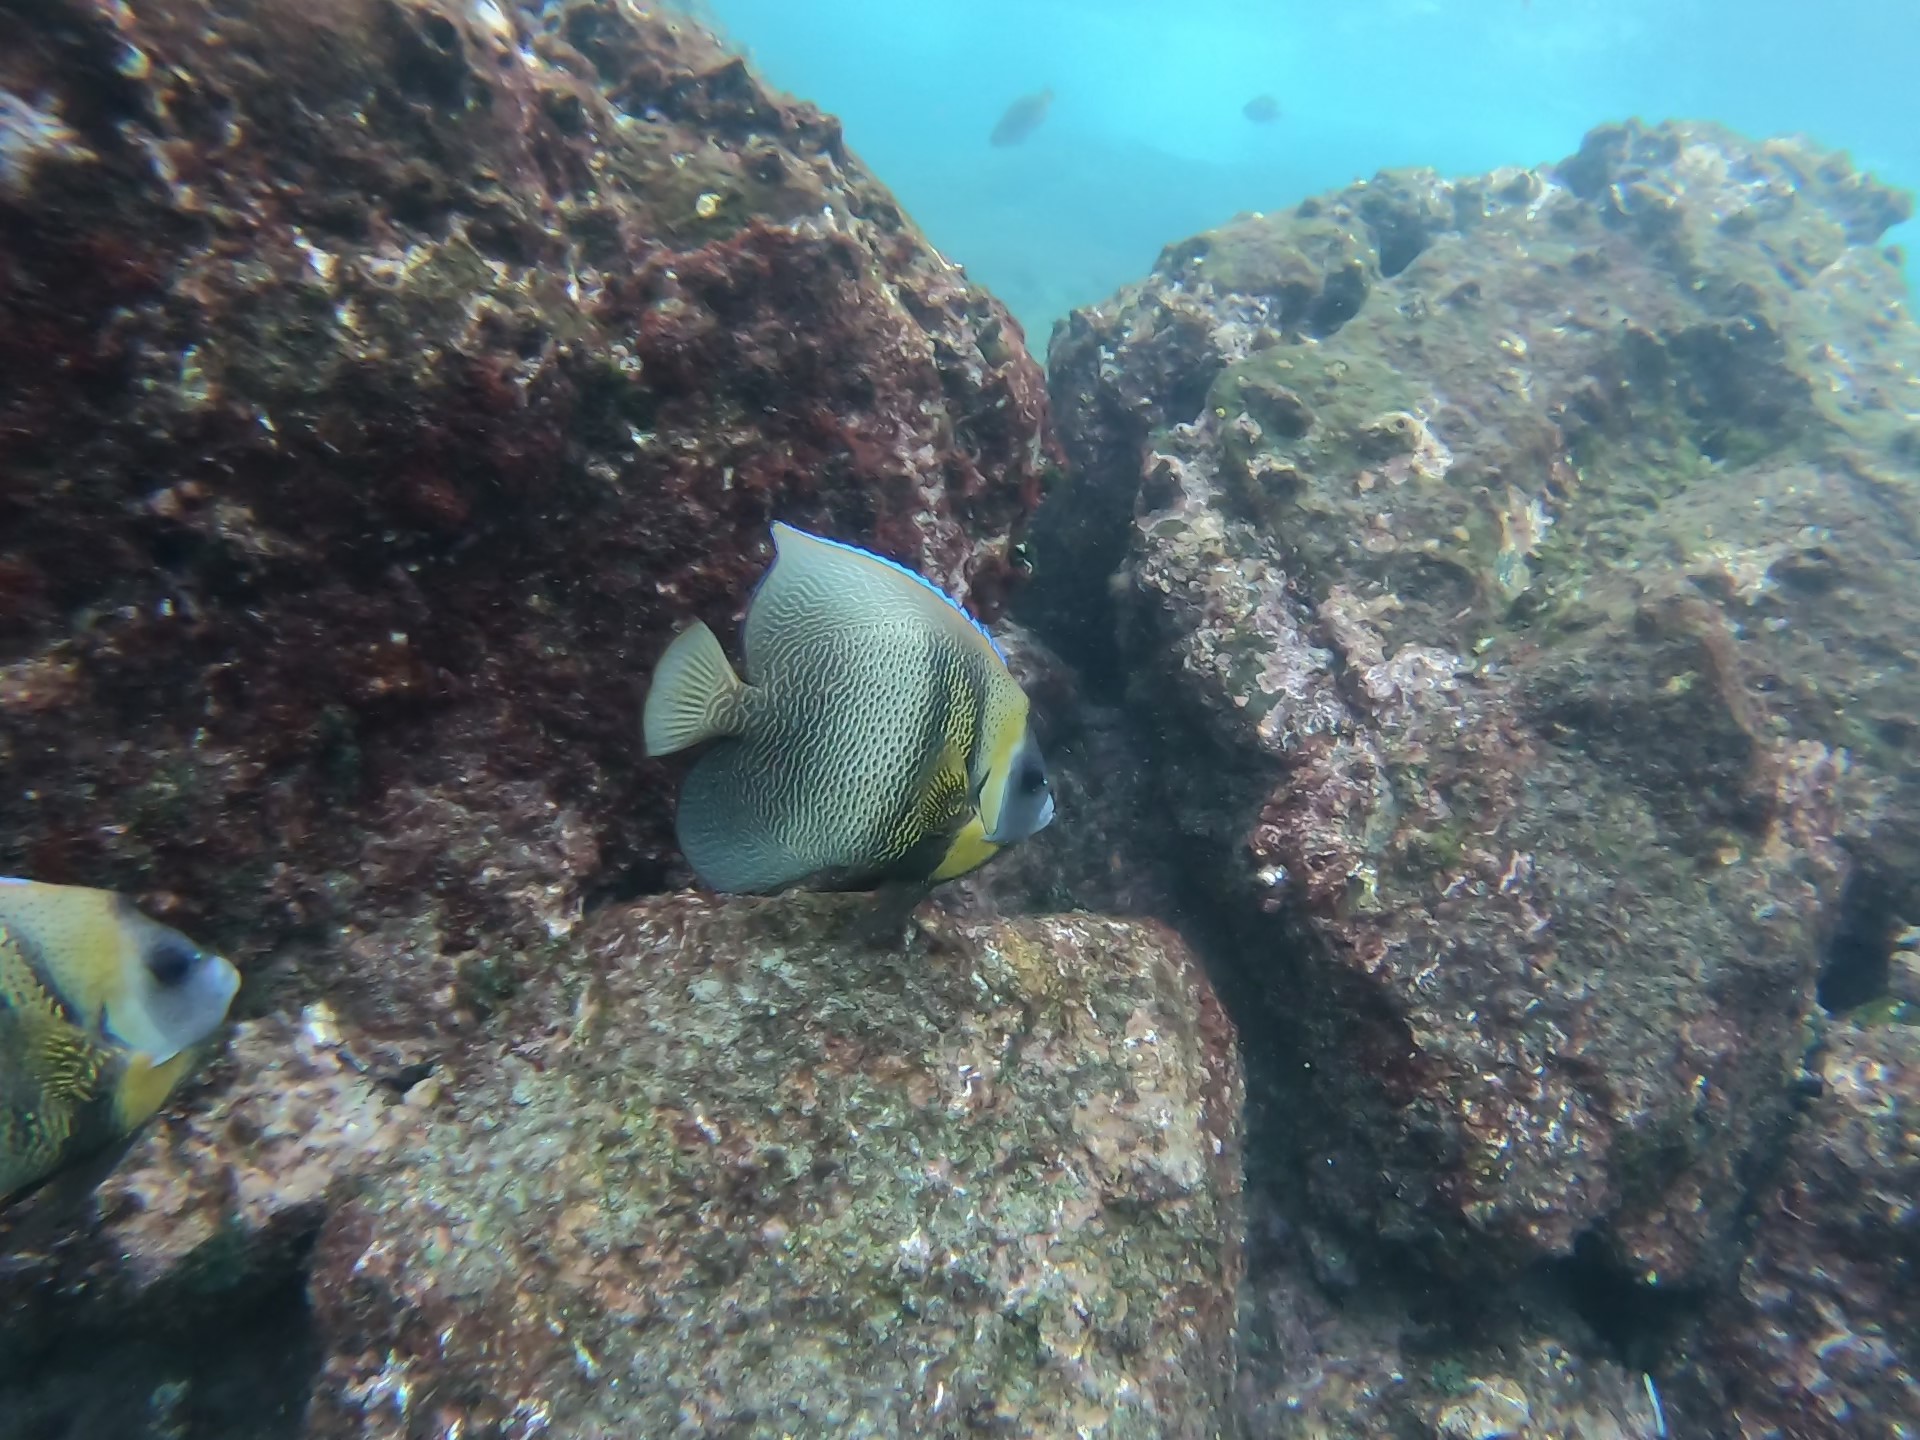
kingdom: Animalia
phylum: Chordata
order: Perciformes
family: Pomacanthidae
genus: Pomacanthus
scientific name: Pomacanthus zonipectus
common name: Cortez angelfish
